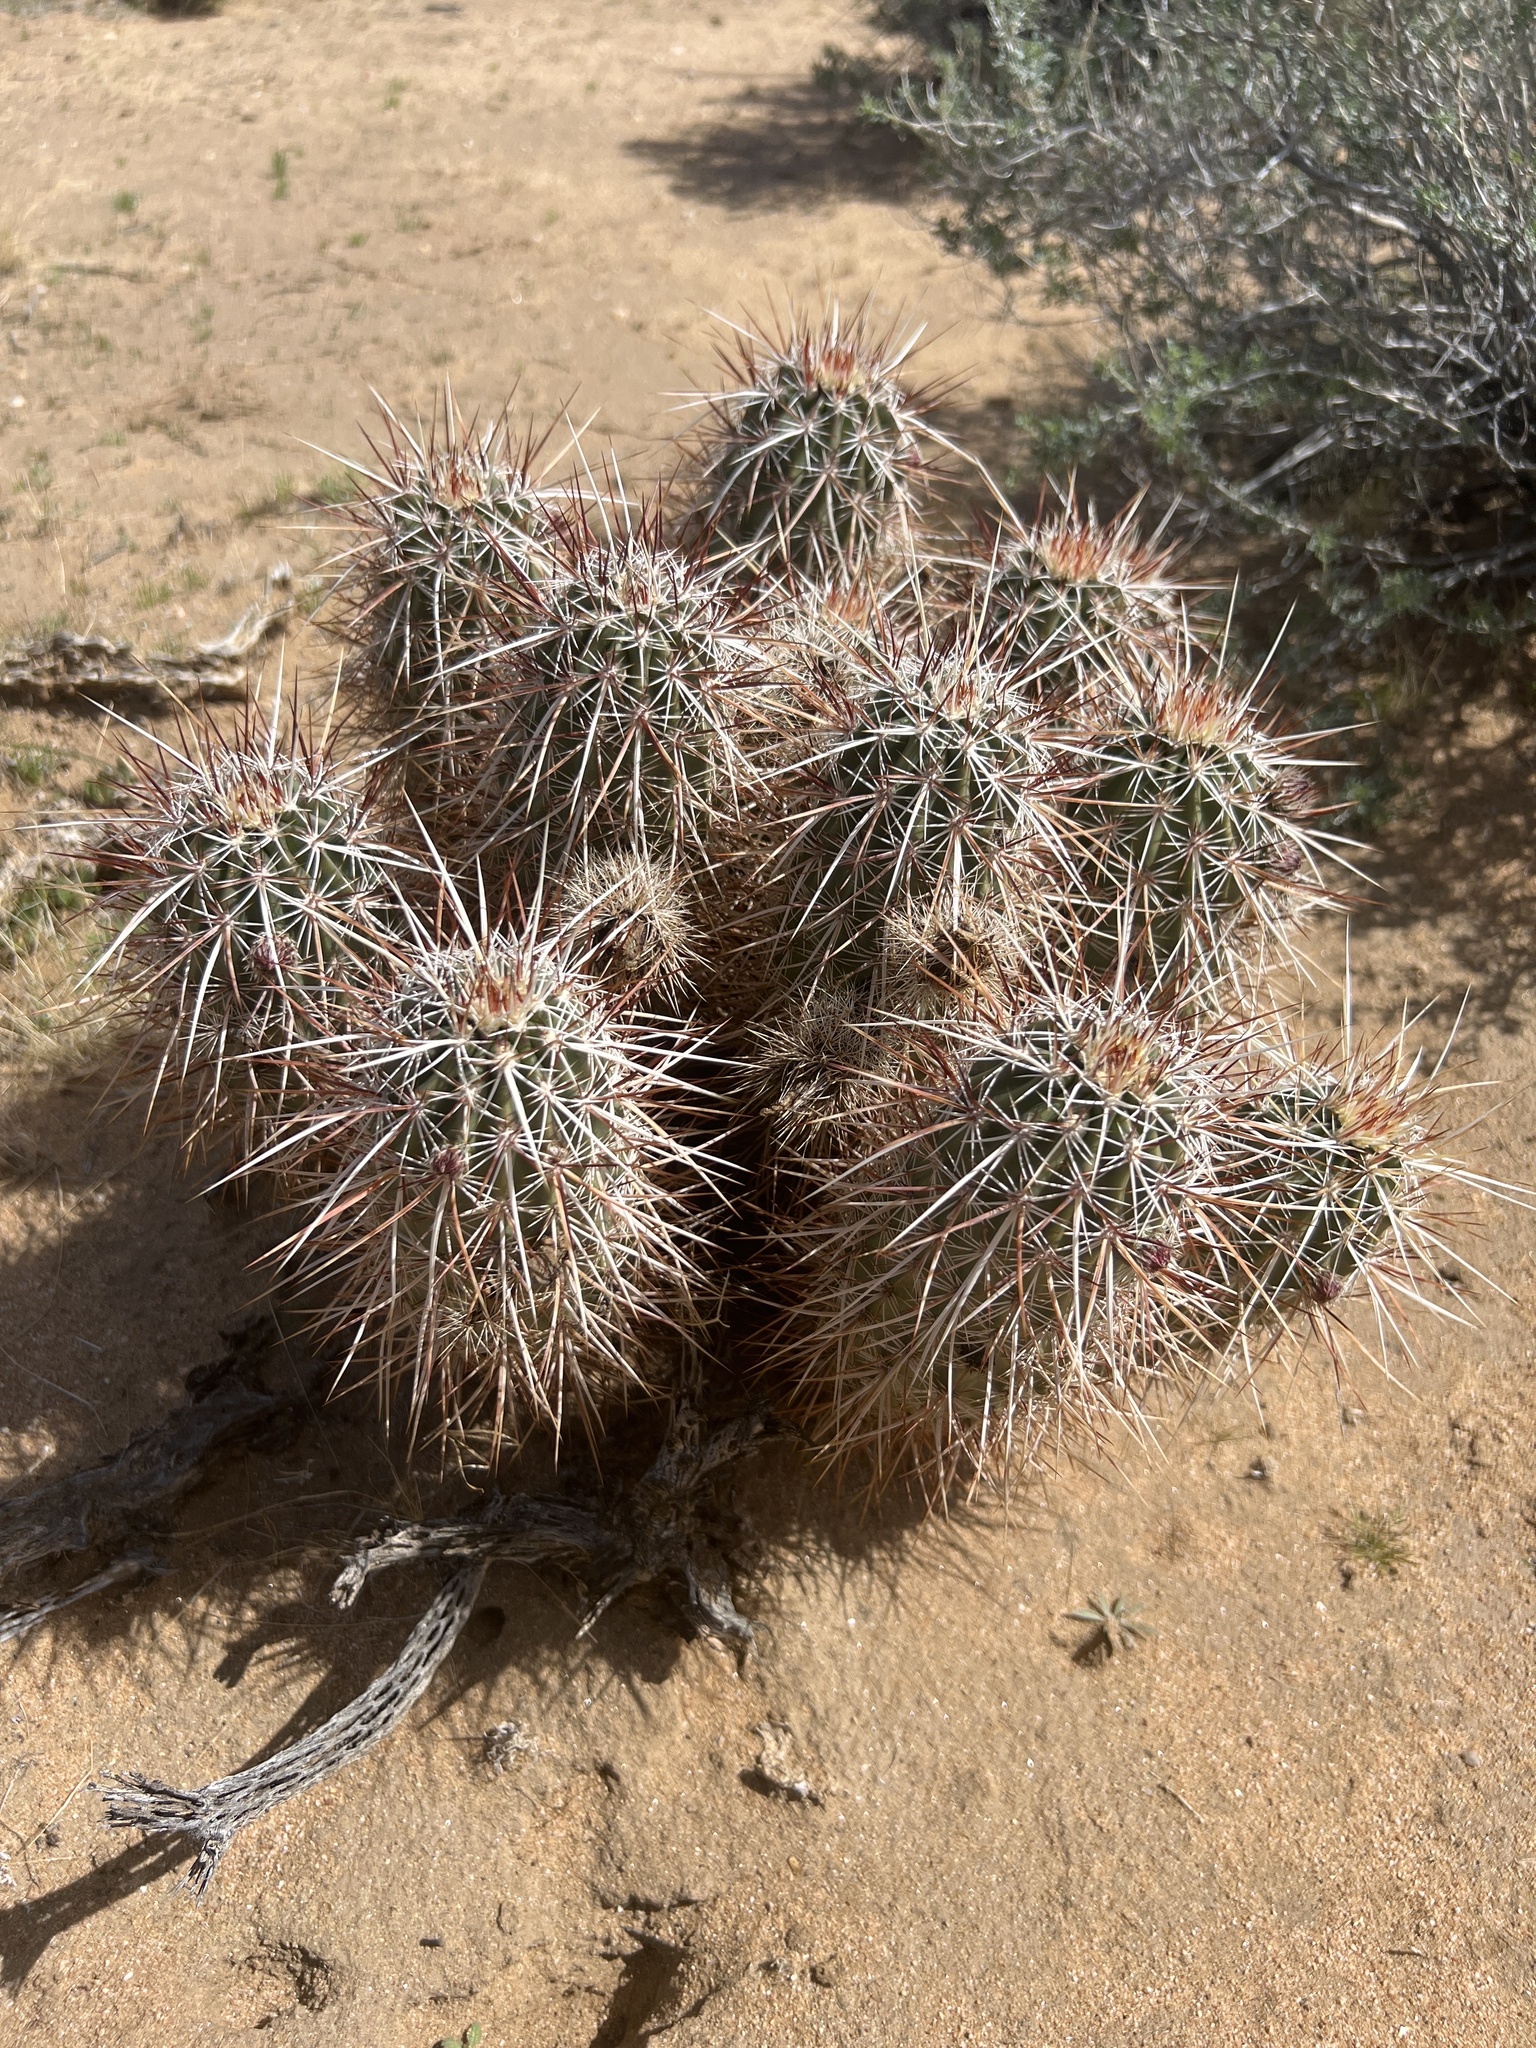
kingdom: Plantae
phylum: Tracheophyta
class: Magnoliopsida
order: Caryophyllales
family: Cactaceae
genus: Echinocereus
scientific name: Echinocereus engelmannii
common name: Engelmann's hedgehog cactus
